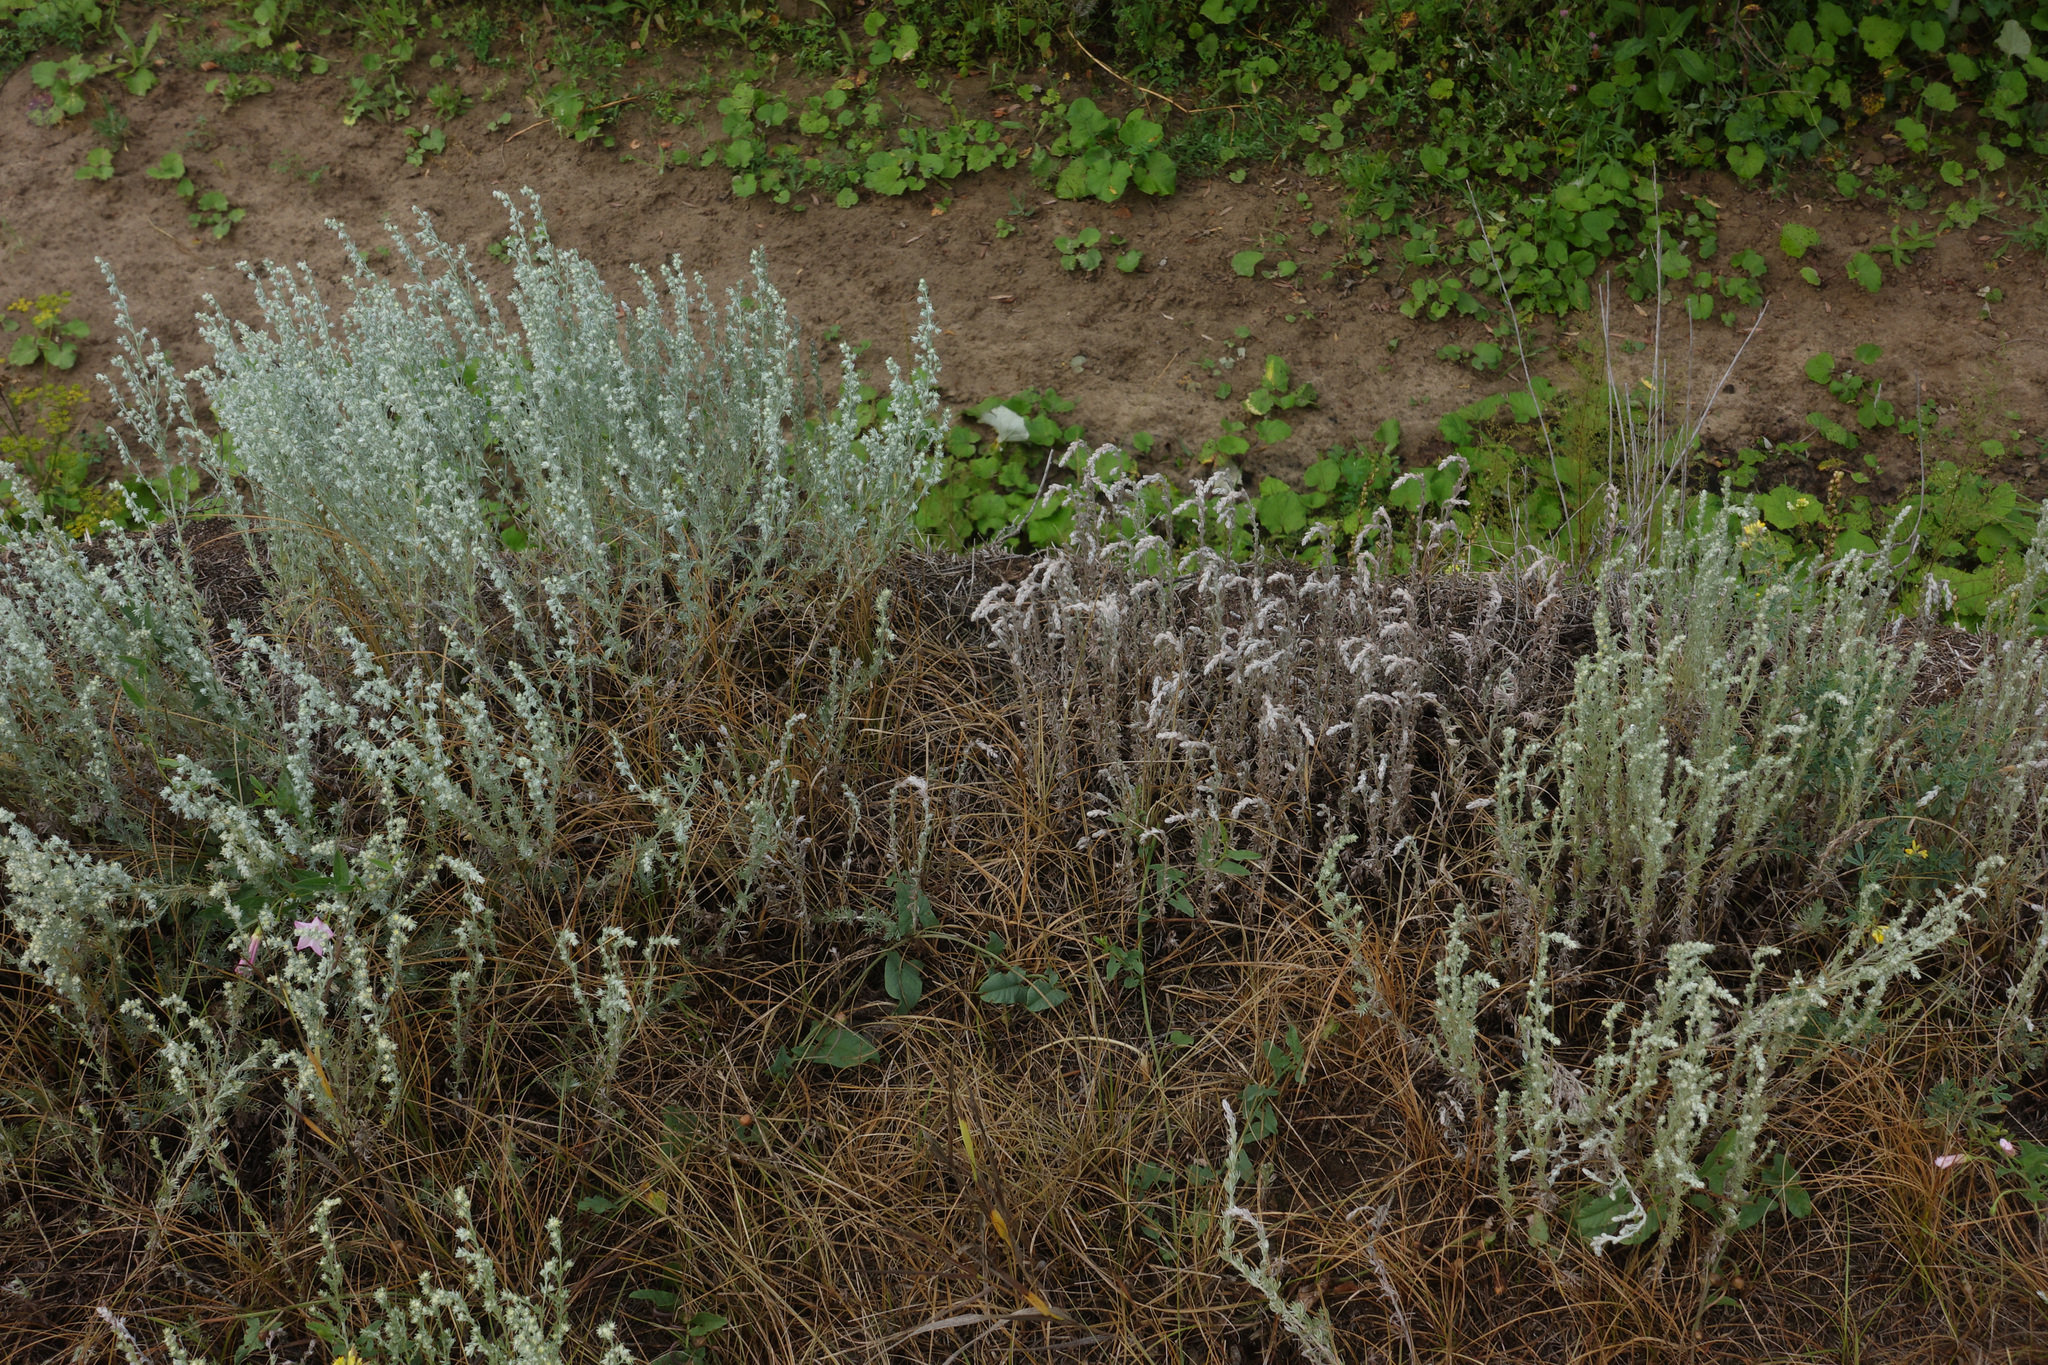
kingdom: Plantae
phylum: Tracheophyta
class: Magnoliopsida
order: Asterales
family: Asteraceae
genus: Artemisia
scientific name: Artemisia frigida
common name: Prairie sagewort
